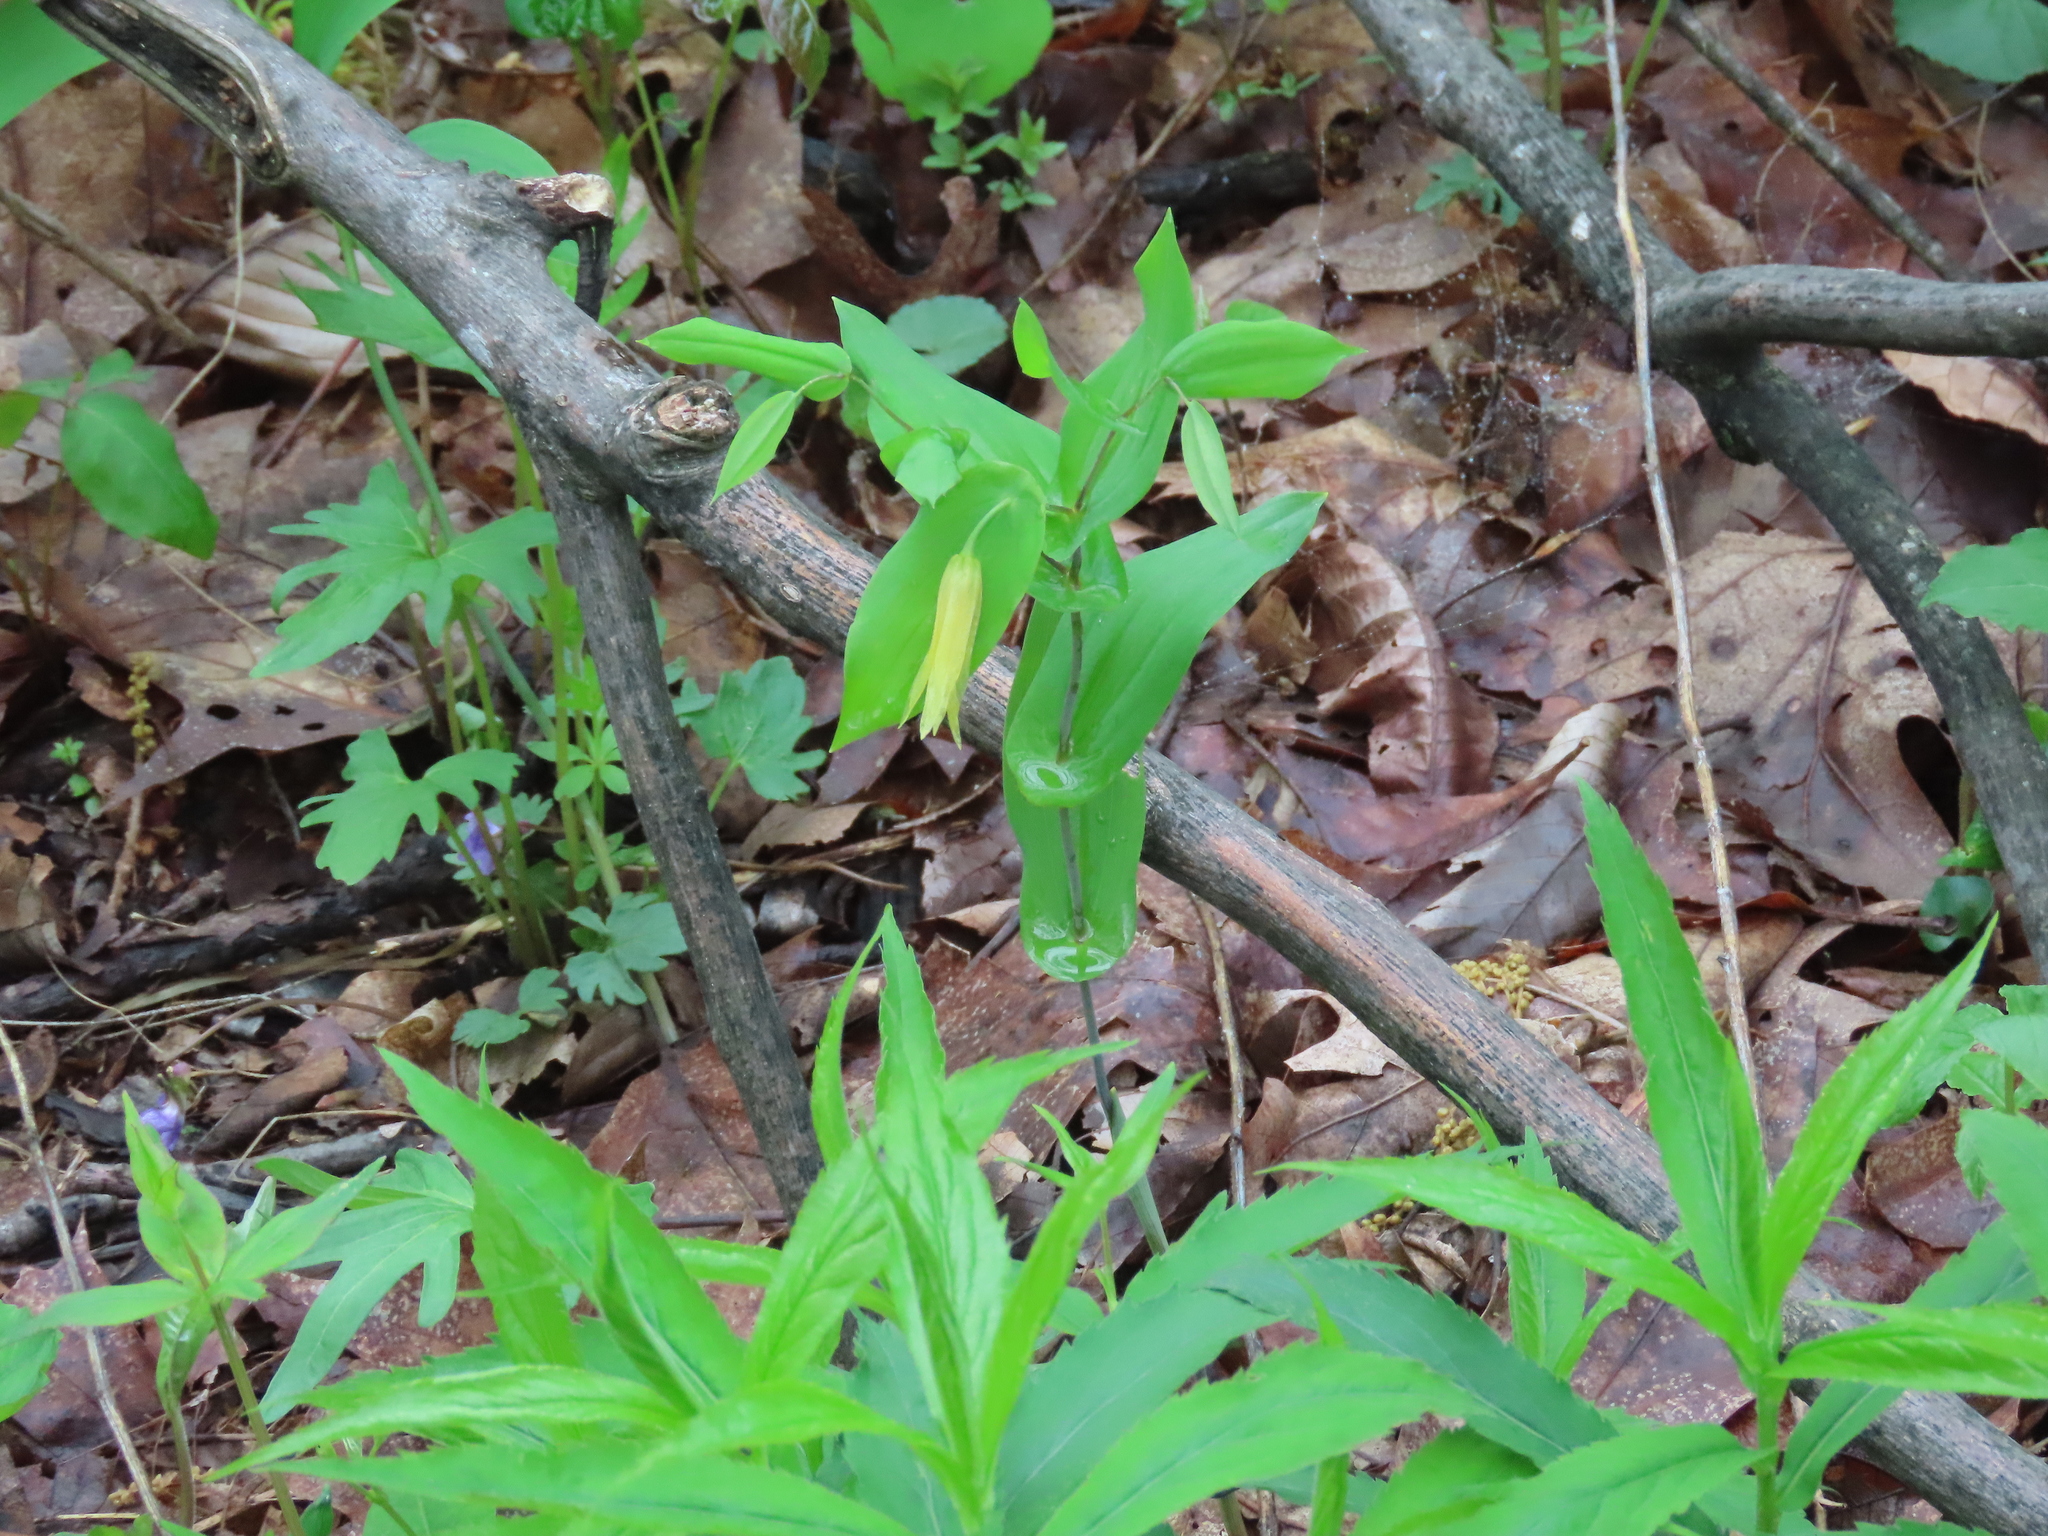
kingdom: Plantae
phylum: Tracheophyta
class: Liliopsida
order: Liliales
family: Colchicaceae
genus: Uvularia
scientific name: Uvularia perfoliata
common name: Perfoliate bellwort
